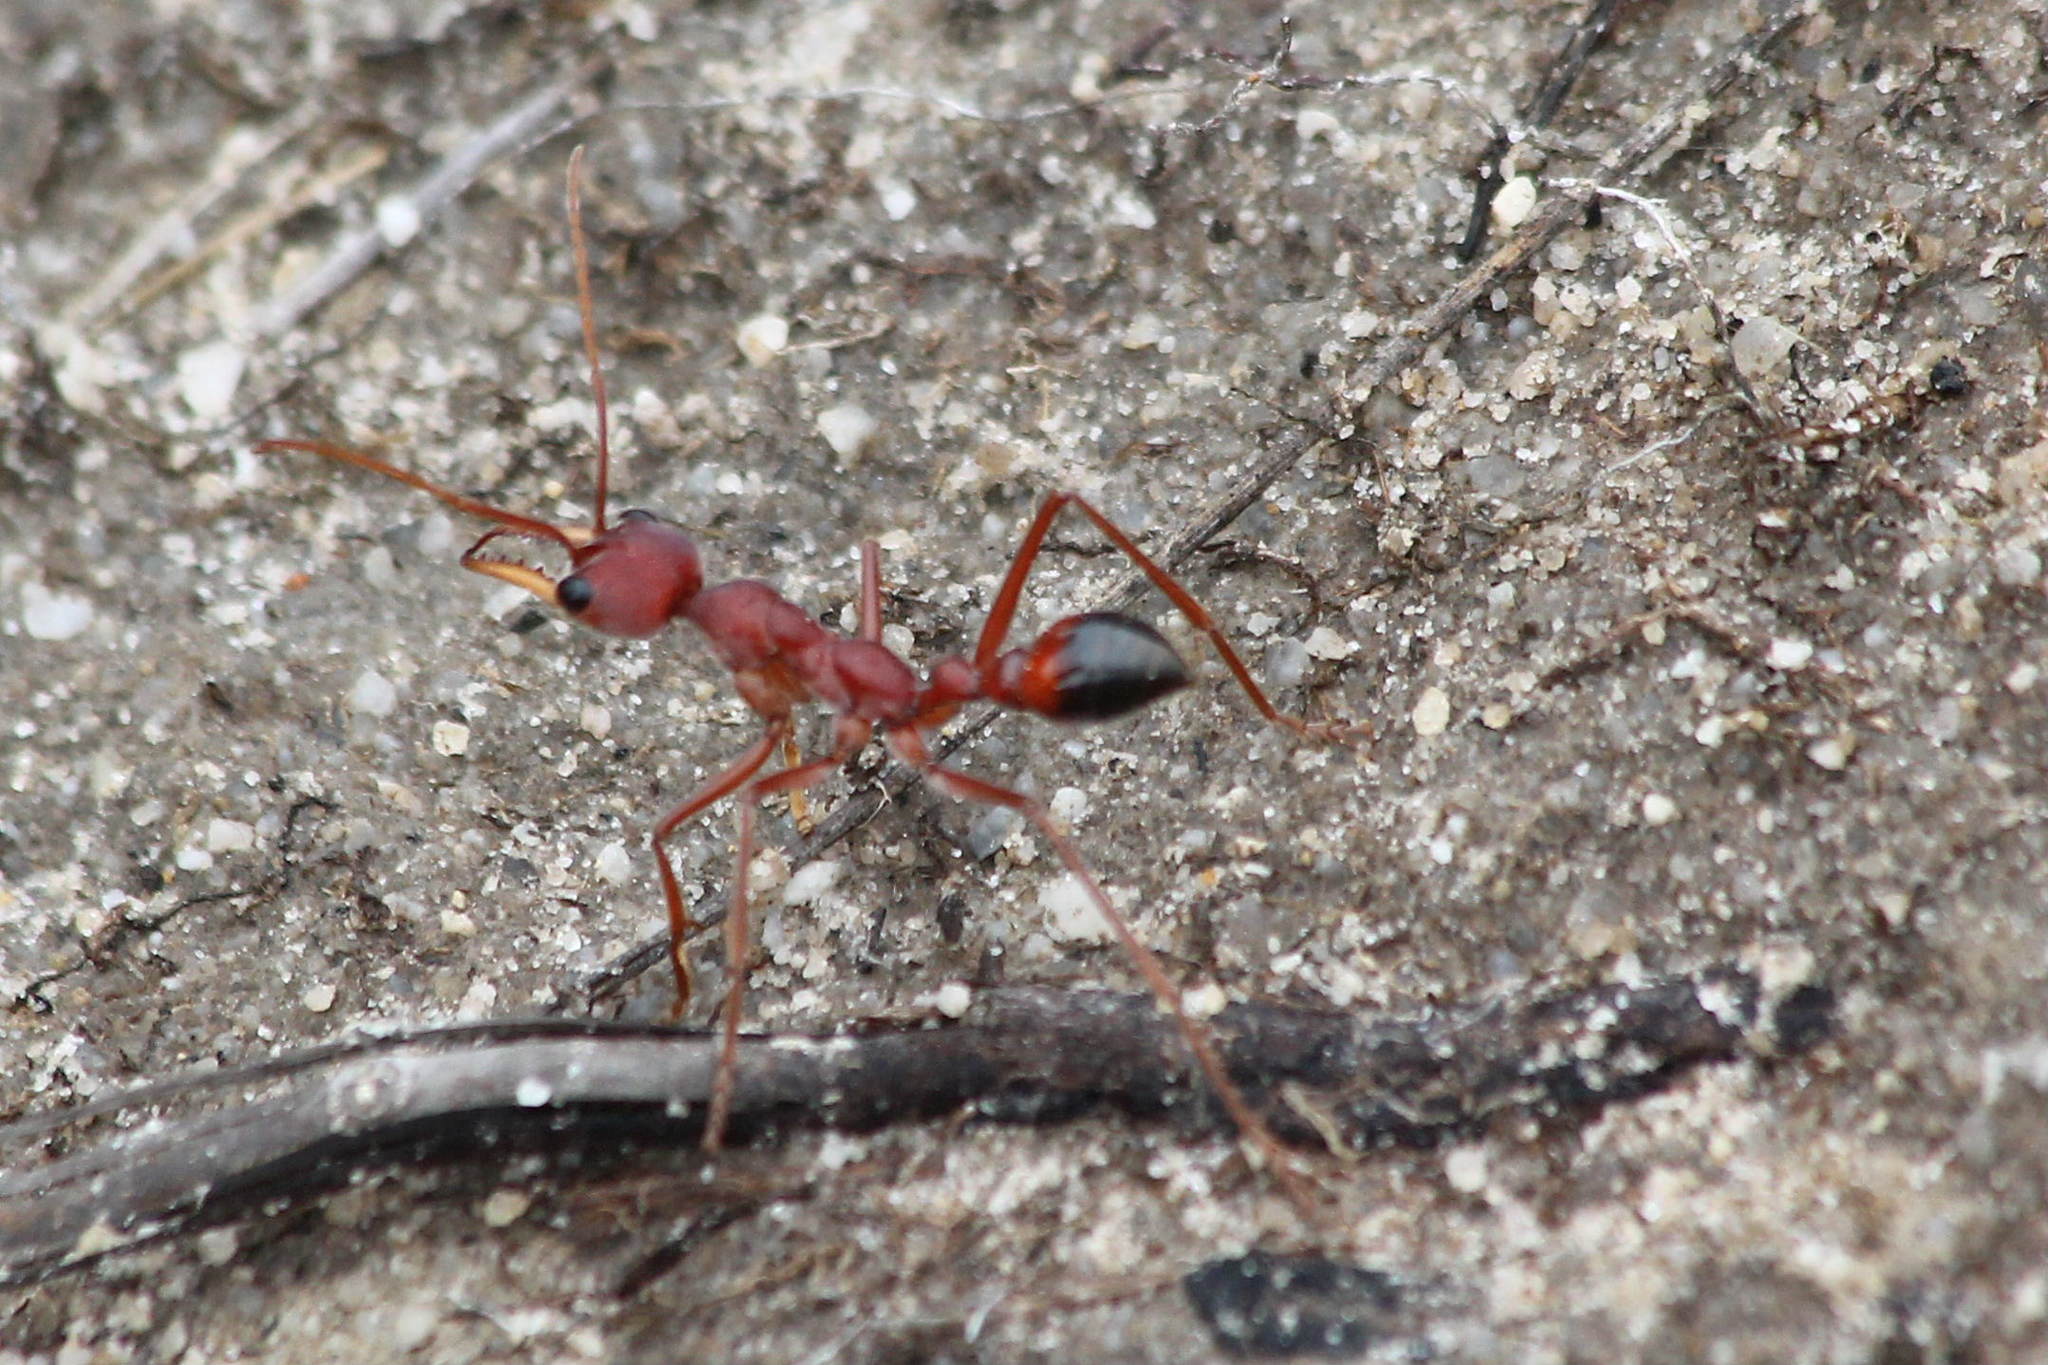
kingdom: Animalia
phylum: Arthropoda
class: Insecta
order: Hymenoptera
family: Formicidae
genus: Myrmecia
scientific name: Myrmecia gulosa
